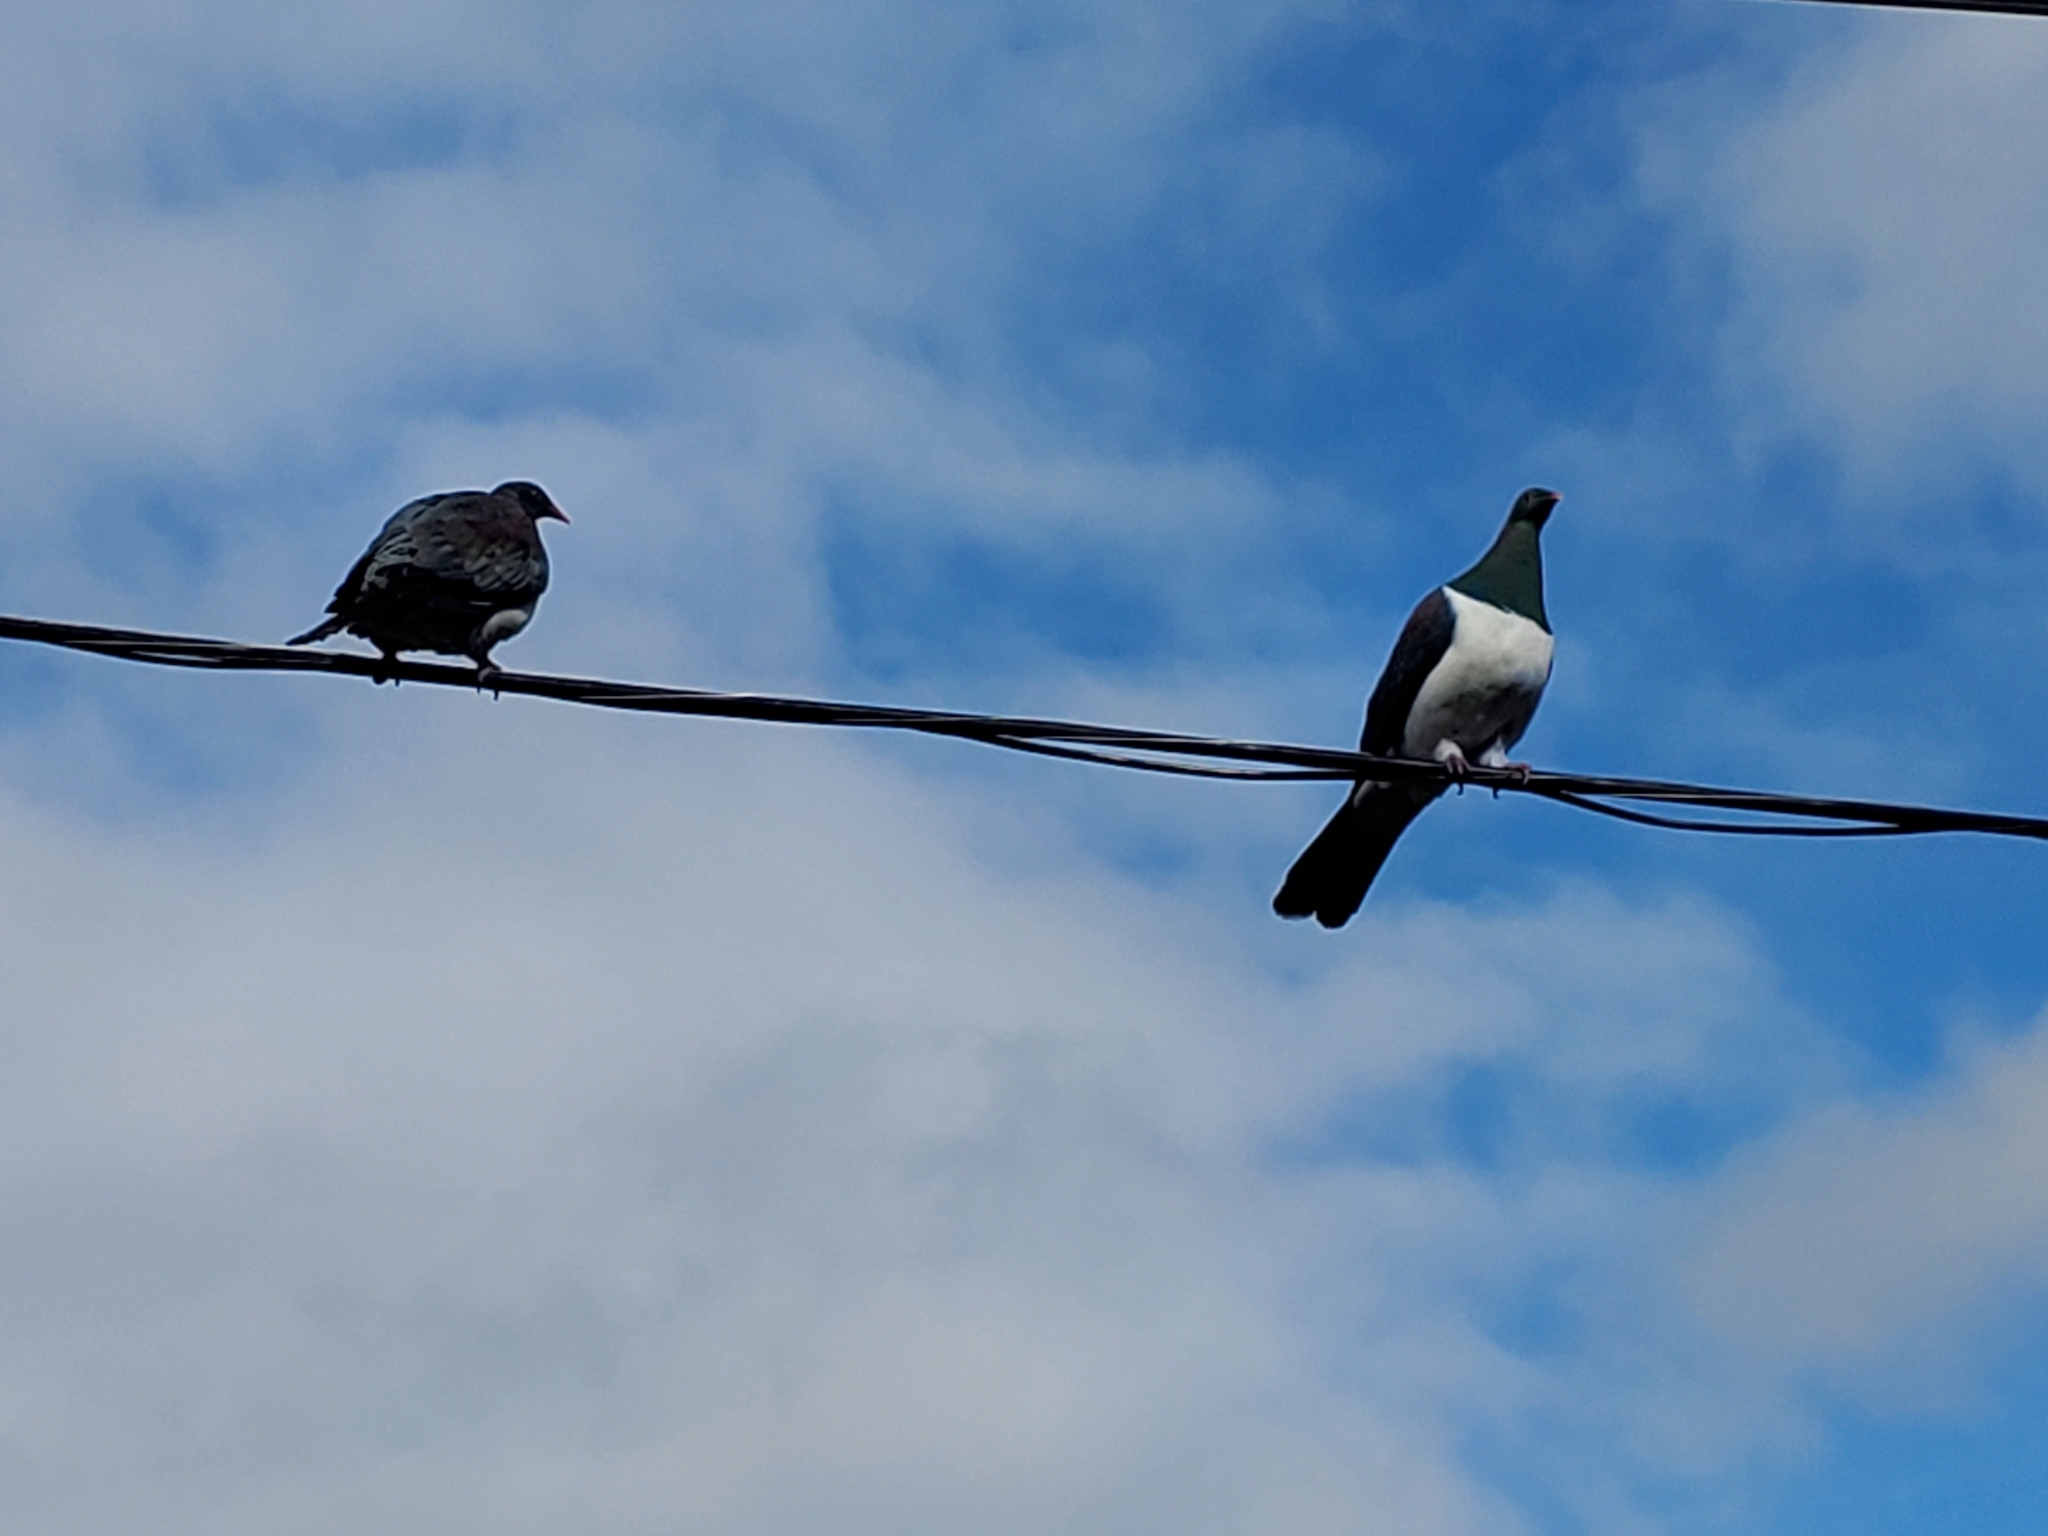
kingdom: Animalia
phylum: Chordata
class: Aves
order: Columbiformes
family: Columbidae
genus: Hemiphaga
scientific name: Hemiphaga novaeseelandiae
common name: New zealand pigeon
